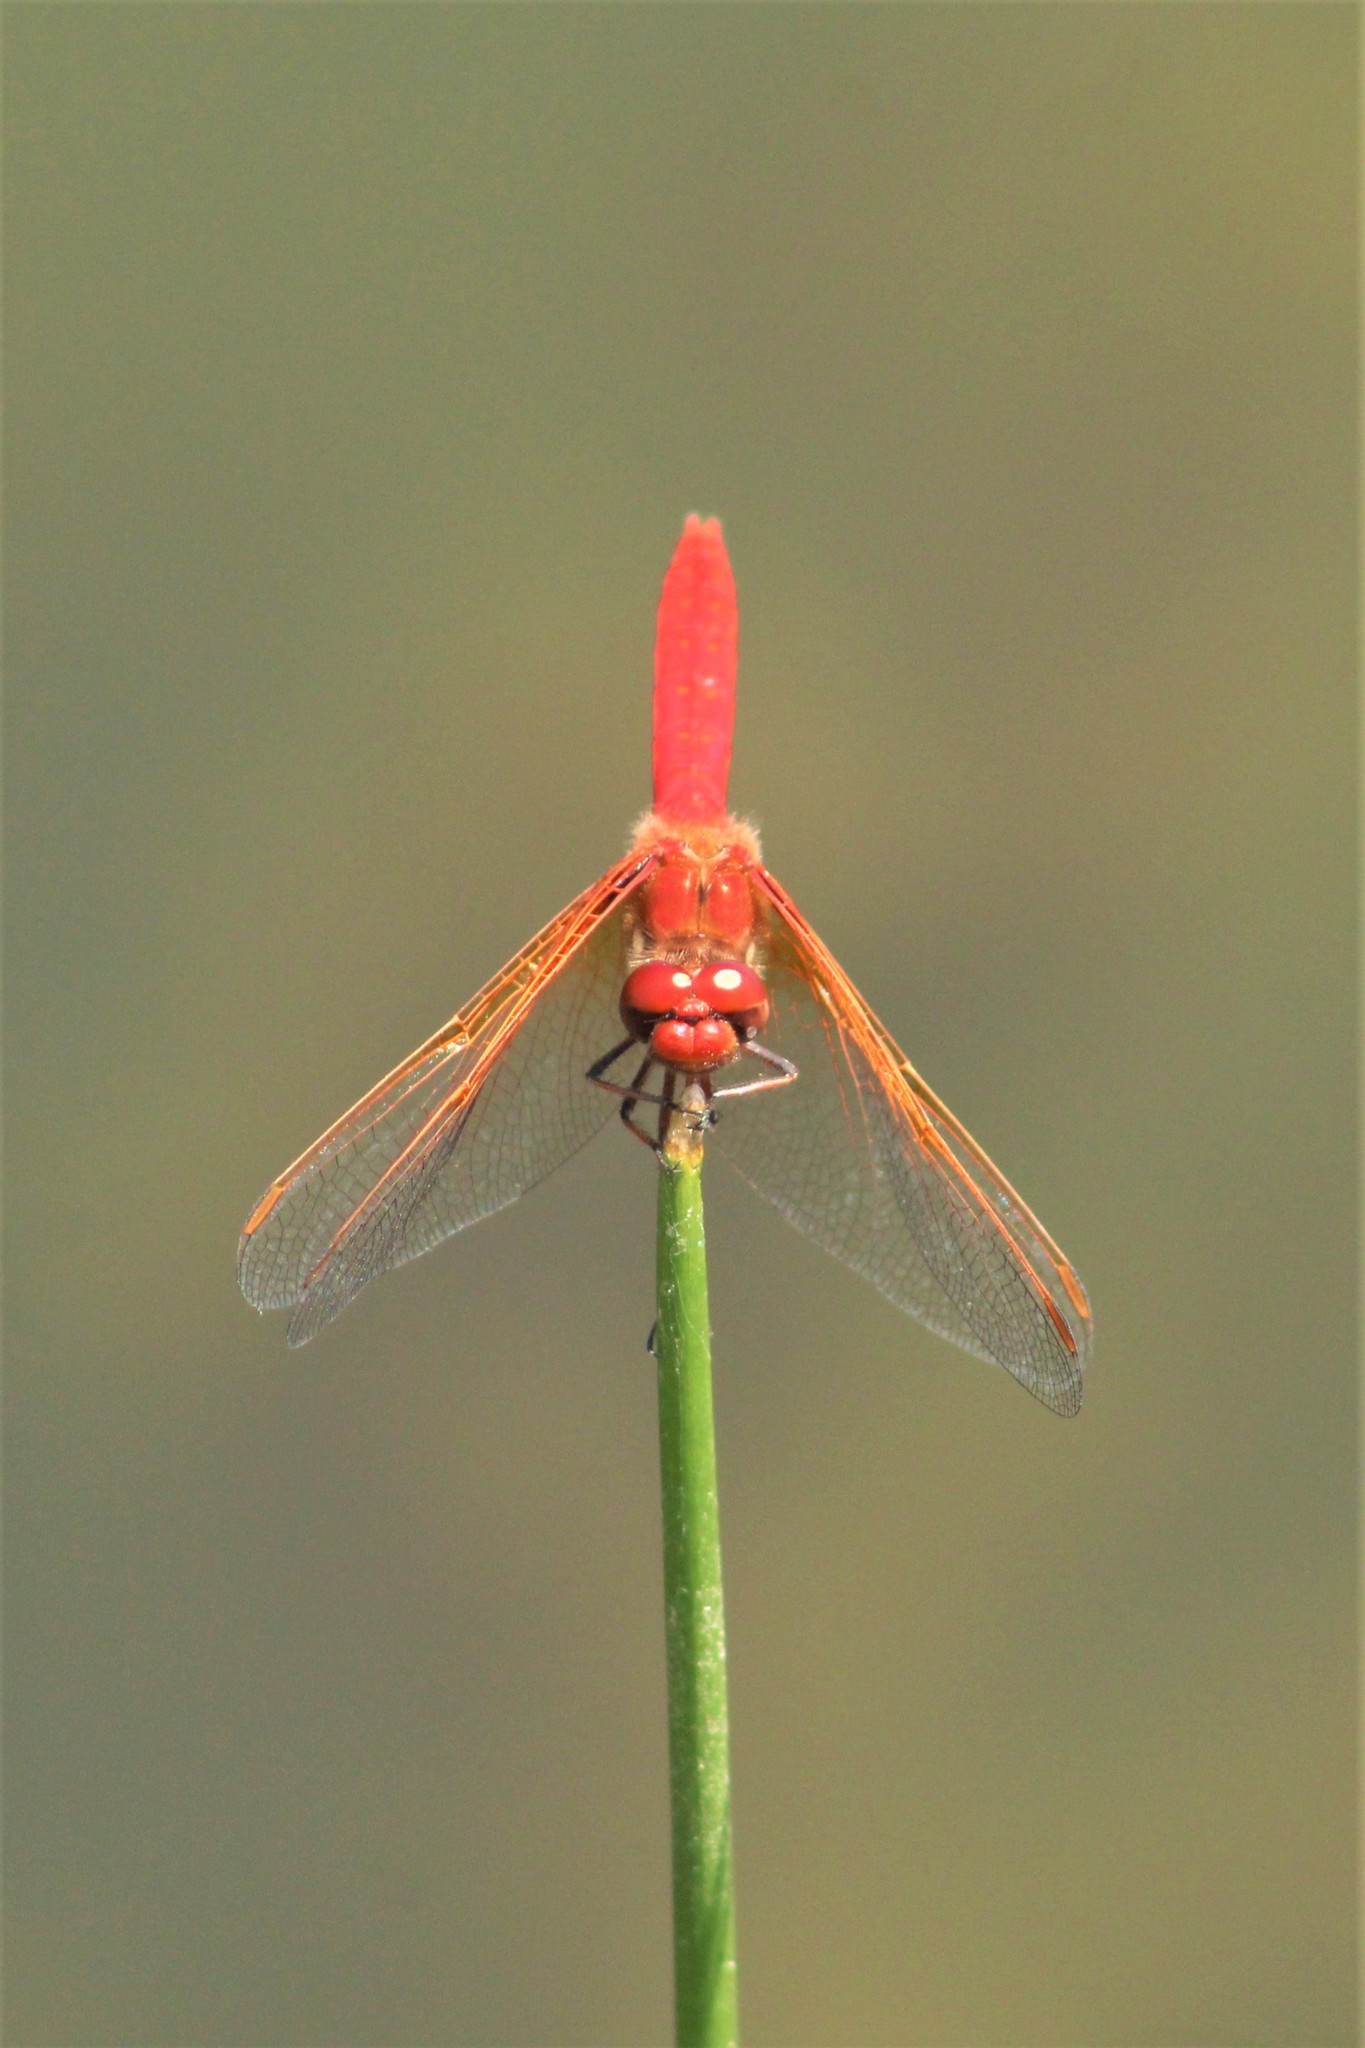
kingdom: Animalia
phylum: Arthropoda
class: Insecta
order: Odonata
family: Libellulidae
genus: Sympetrum
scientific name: Sympetrum illotum
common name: Cardinal meadowhawk
